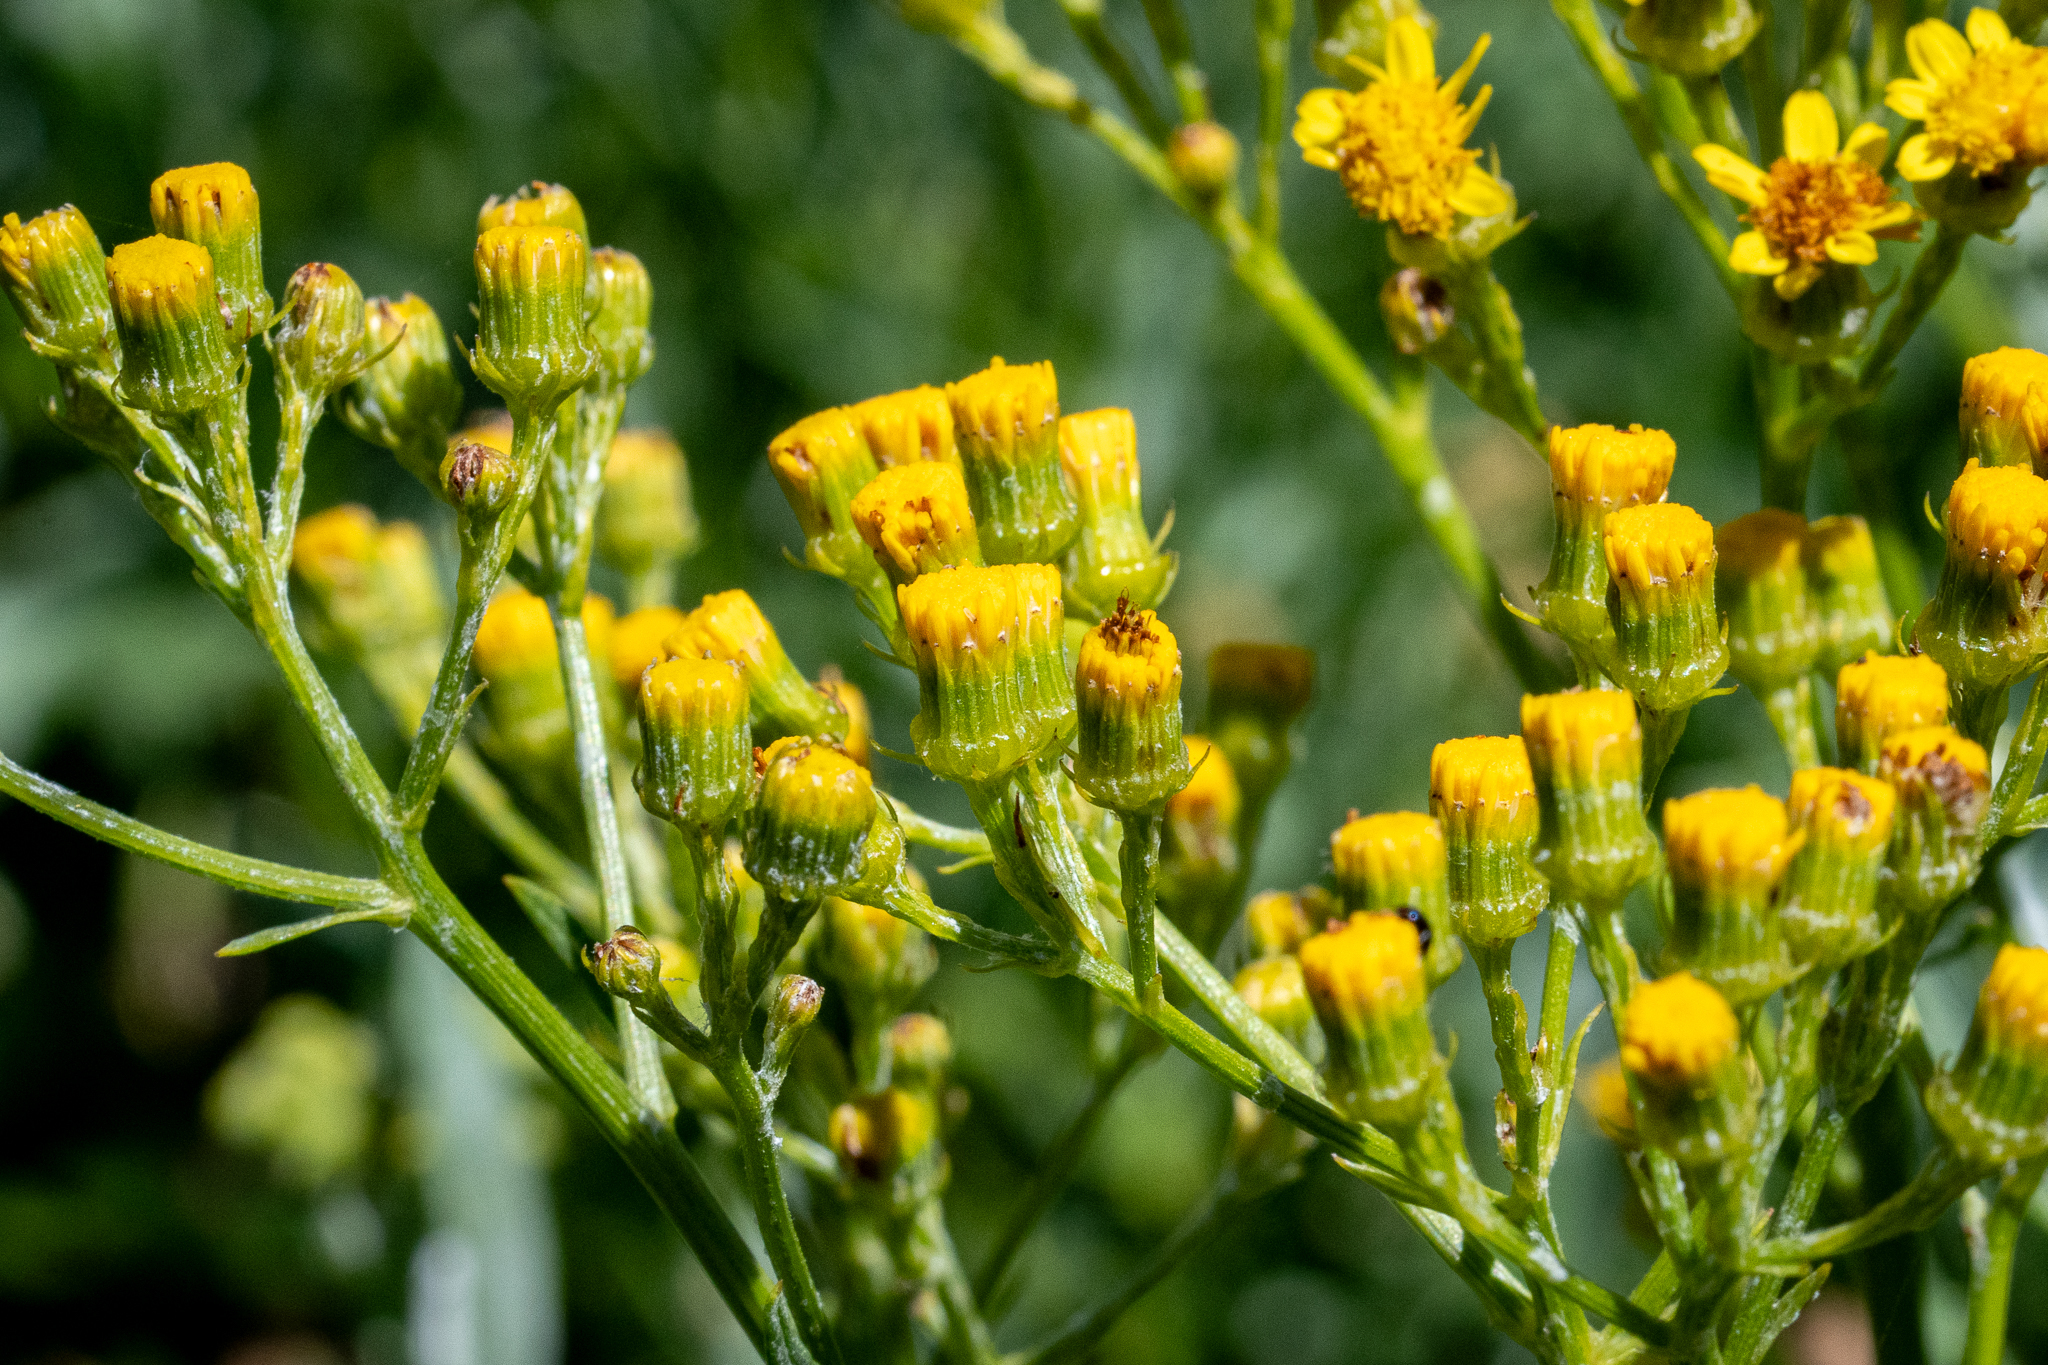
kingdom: Plantae
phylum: Tracheophyta
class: Magnoliopsida
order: Asterales
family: Asteraceae
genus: Senecio
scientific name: Senecio halimifolius
